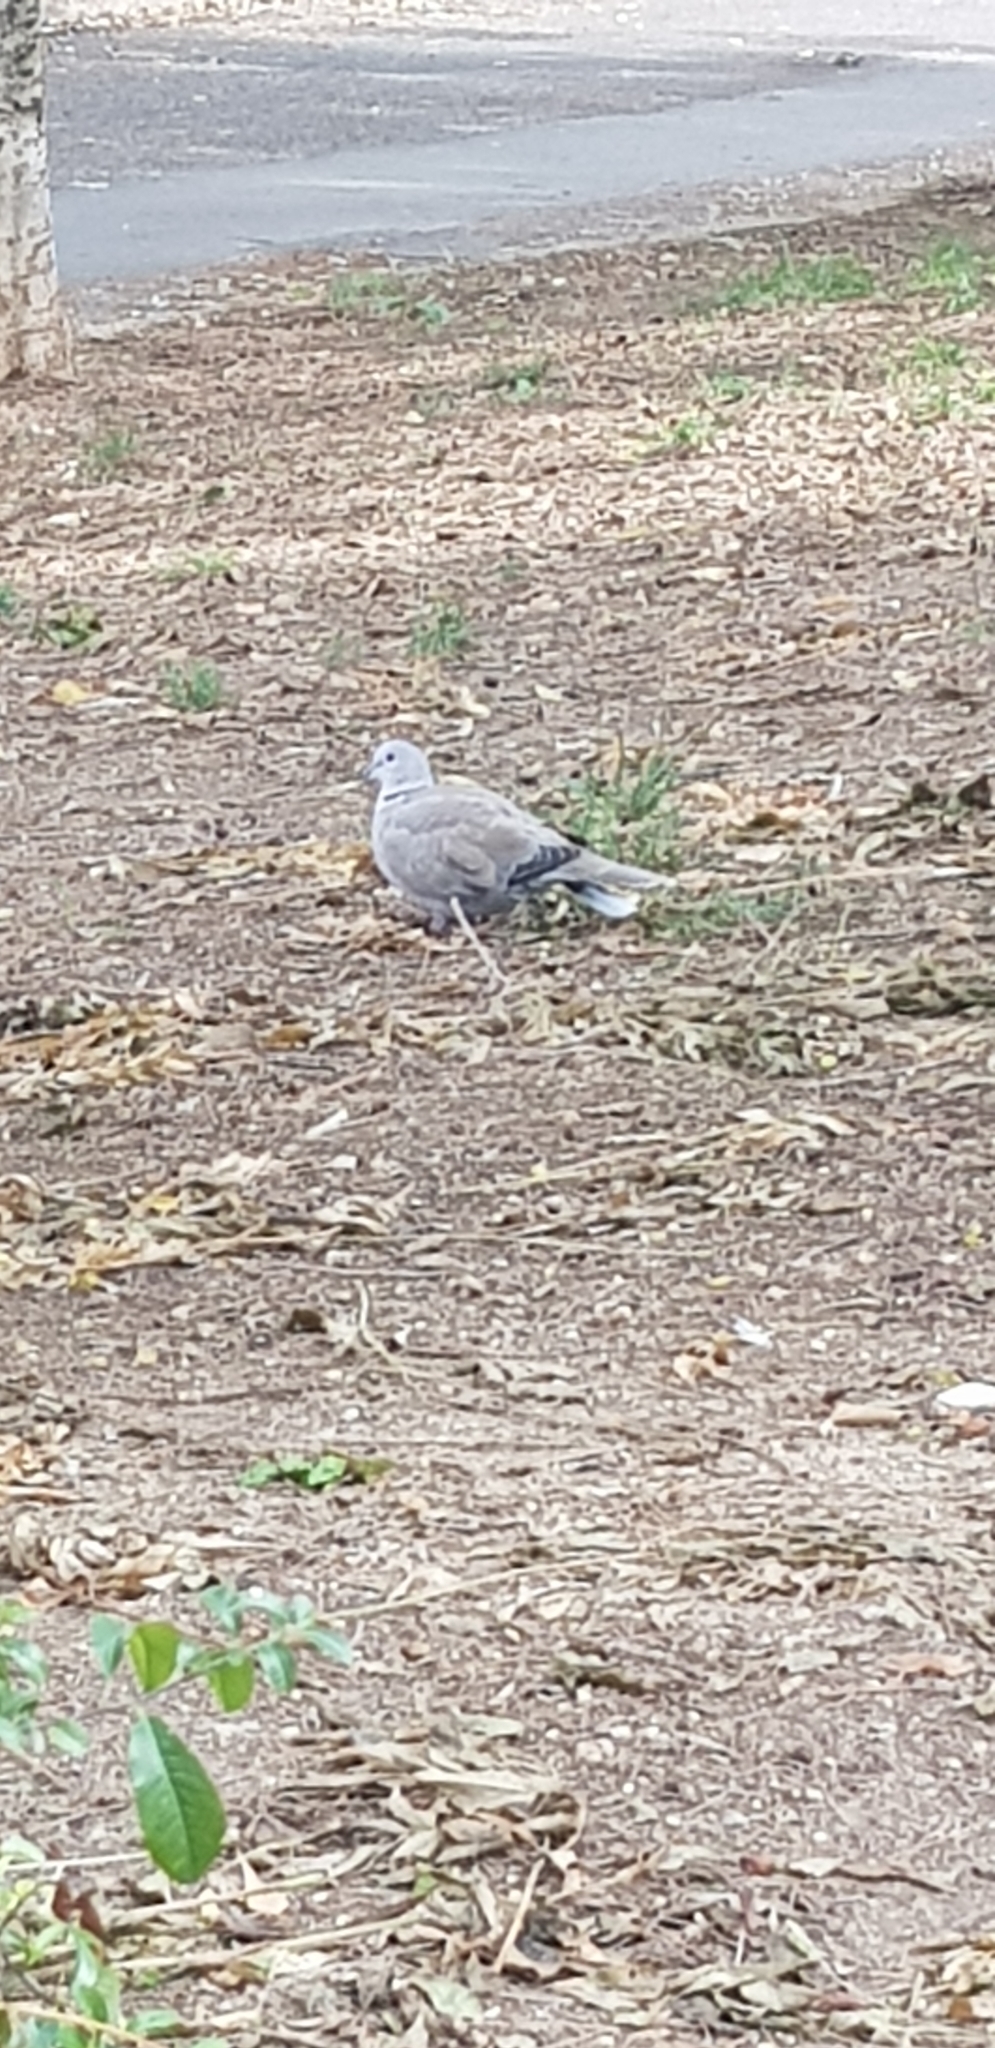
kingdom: Animalia
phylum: Chordata
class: Aves
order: Columbiformes
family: Columbidae
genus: Streptopelia
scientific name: Streptopelia decaocto
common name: Eurasian collared dove
